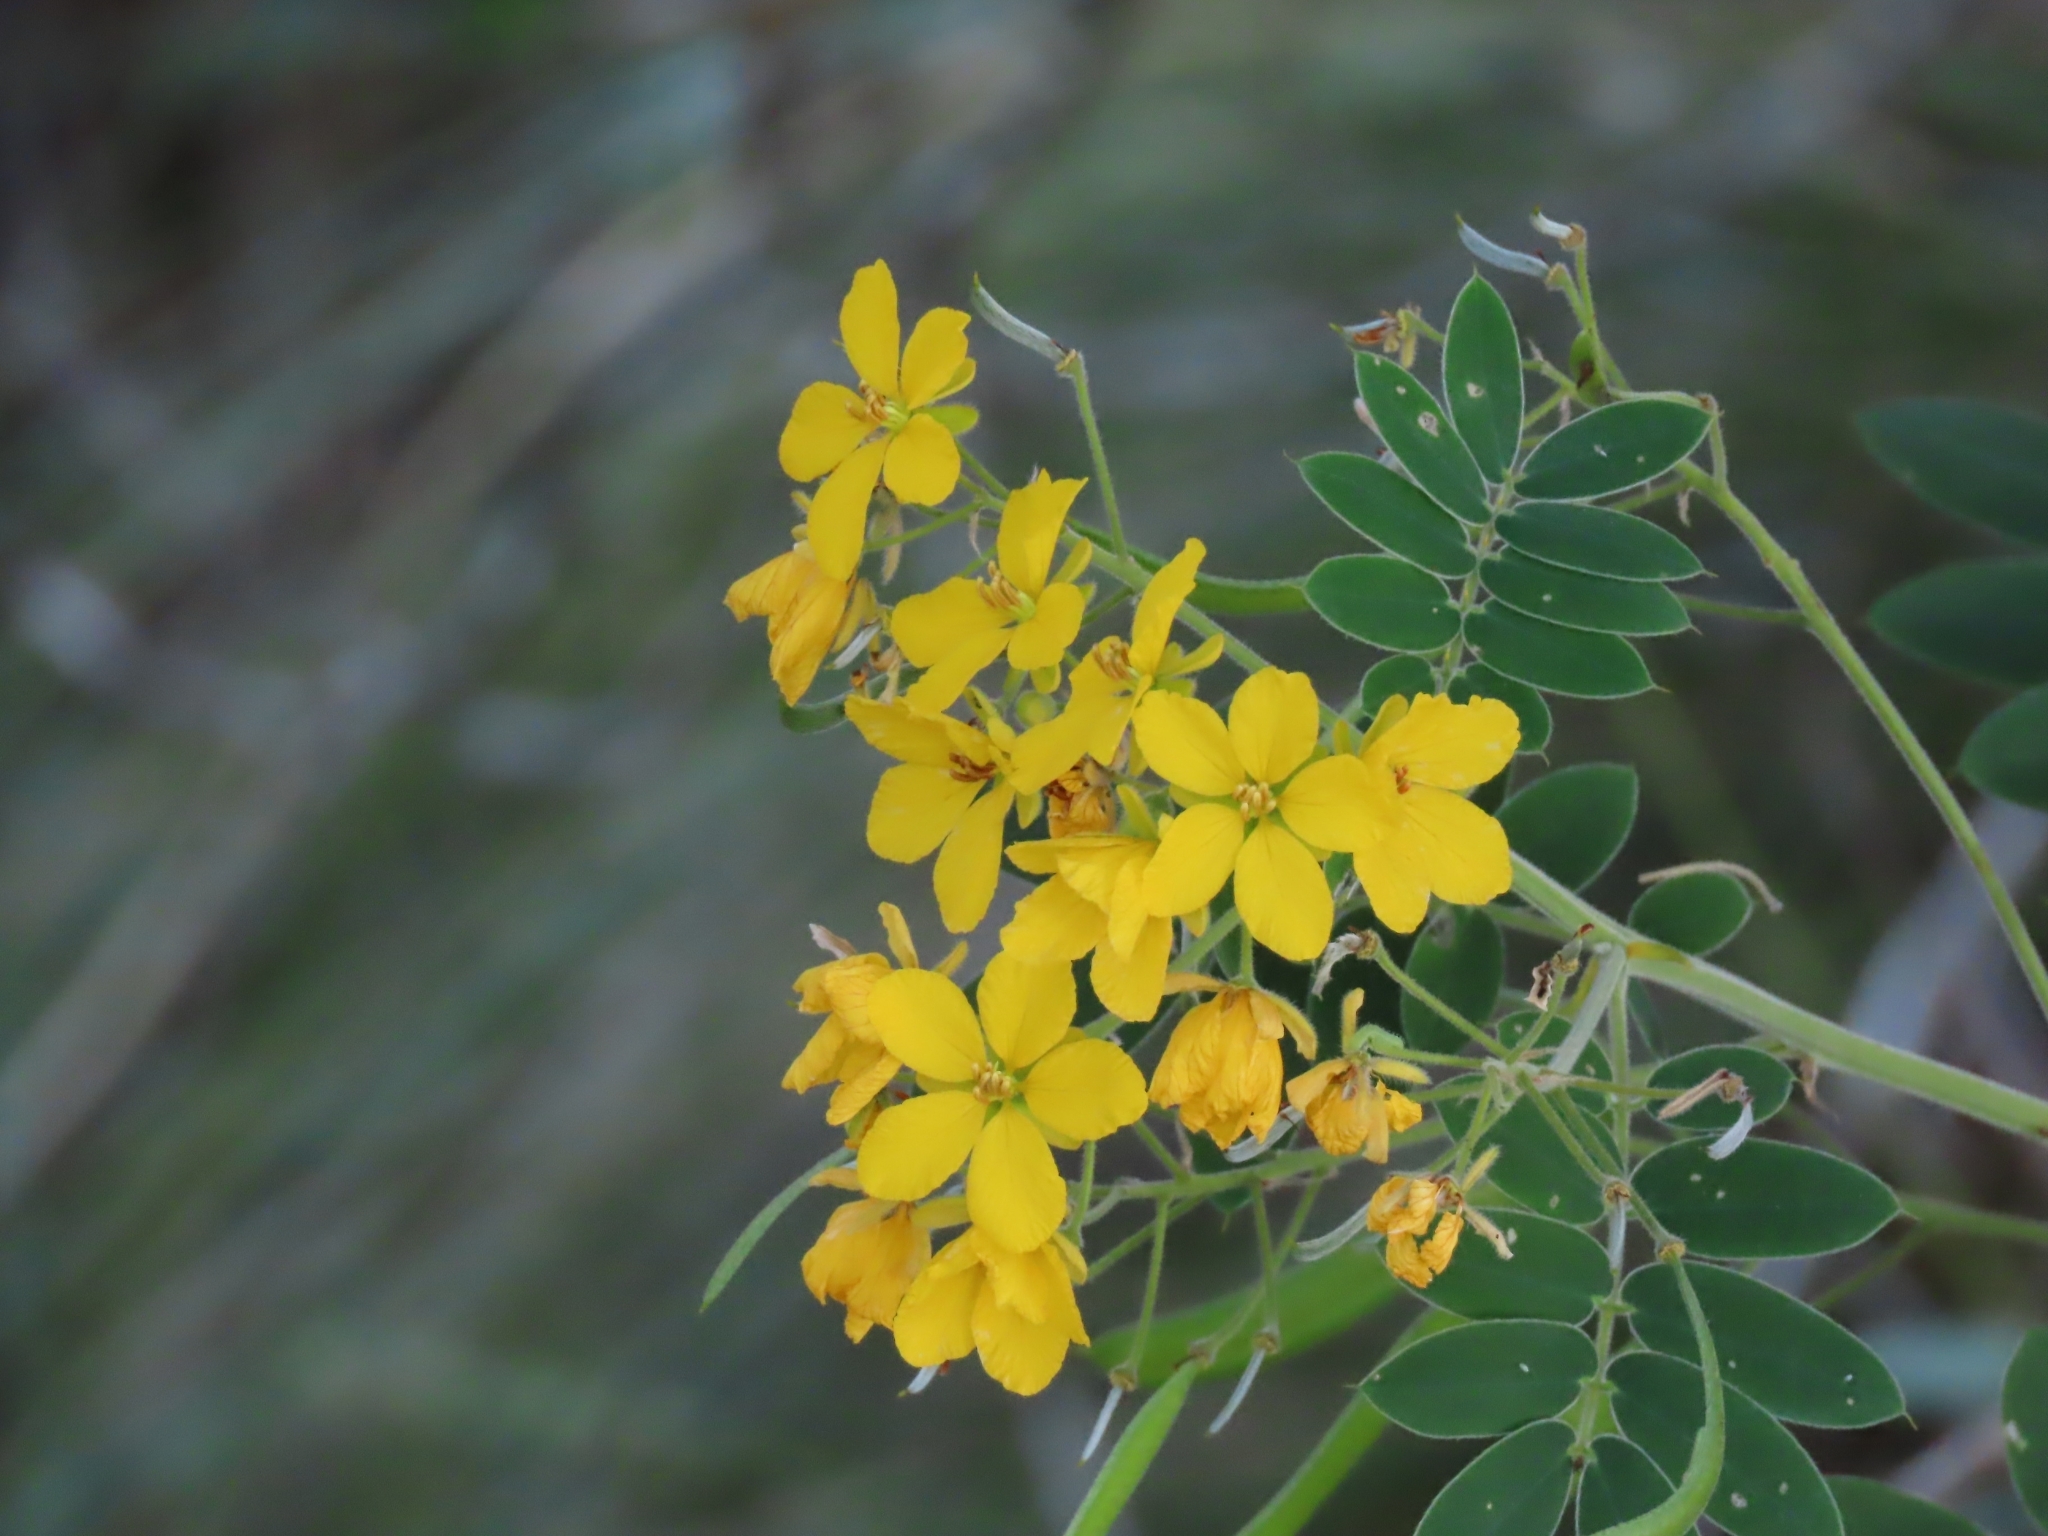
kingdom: Plantae
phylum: Tracheophyta
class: Magnoliopsida
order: Fabales
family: Fabaceae
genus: Senna
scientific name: Senna lindheimeriana
